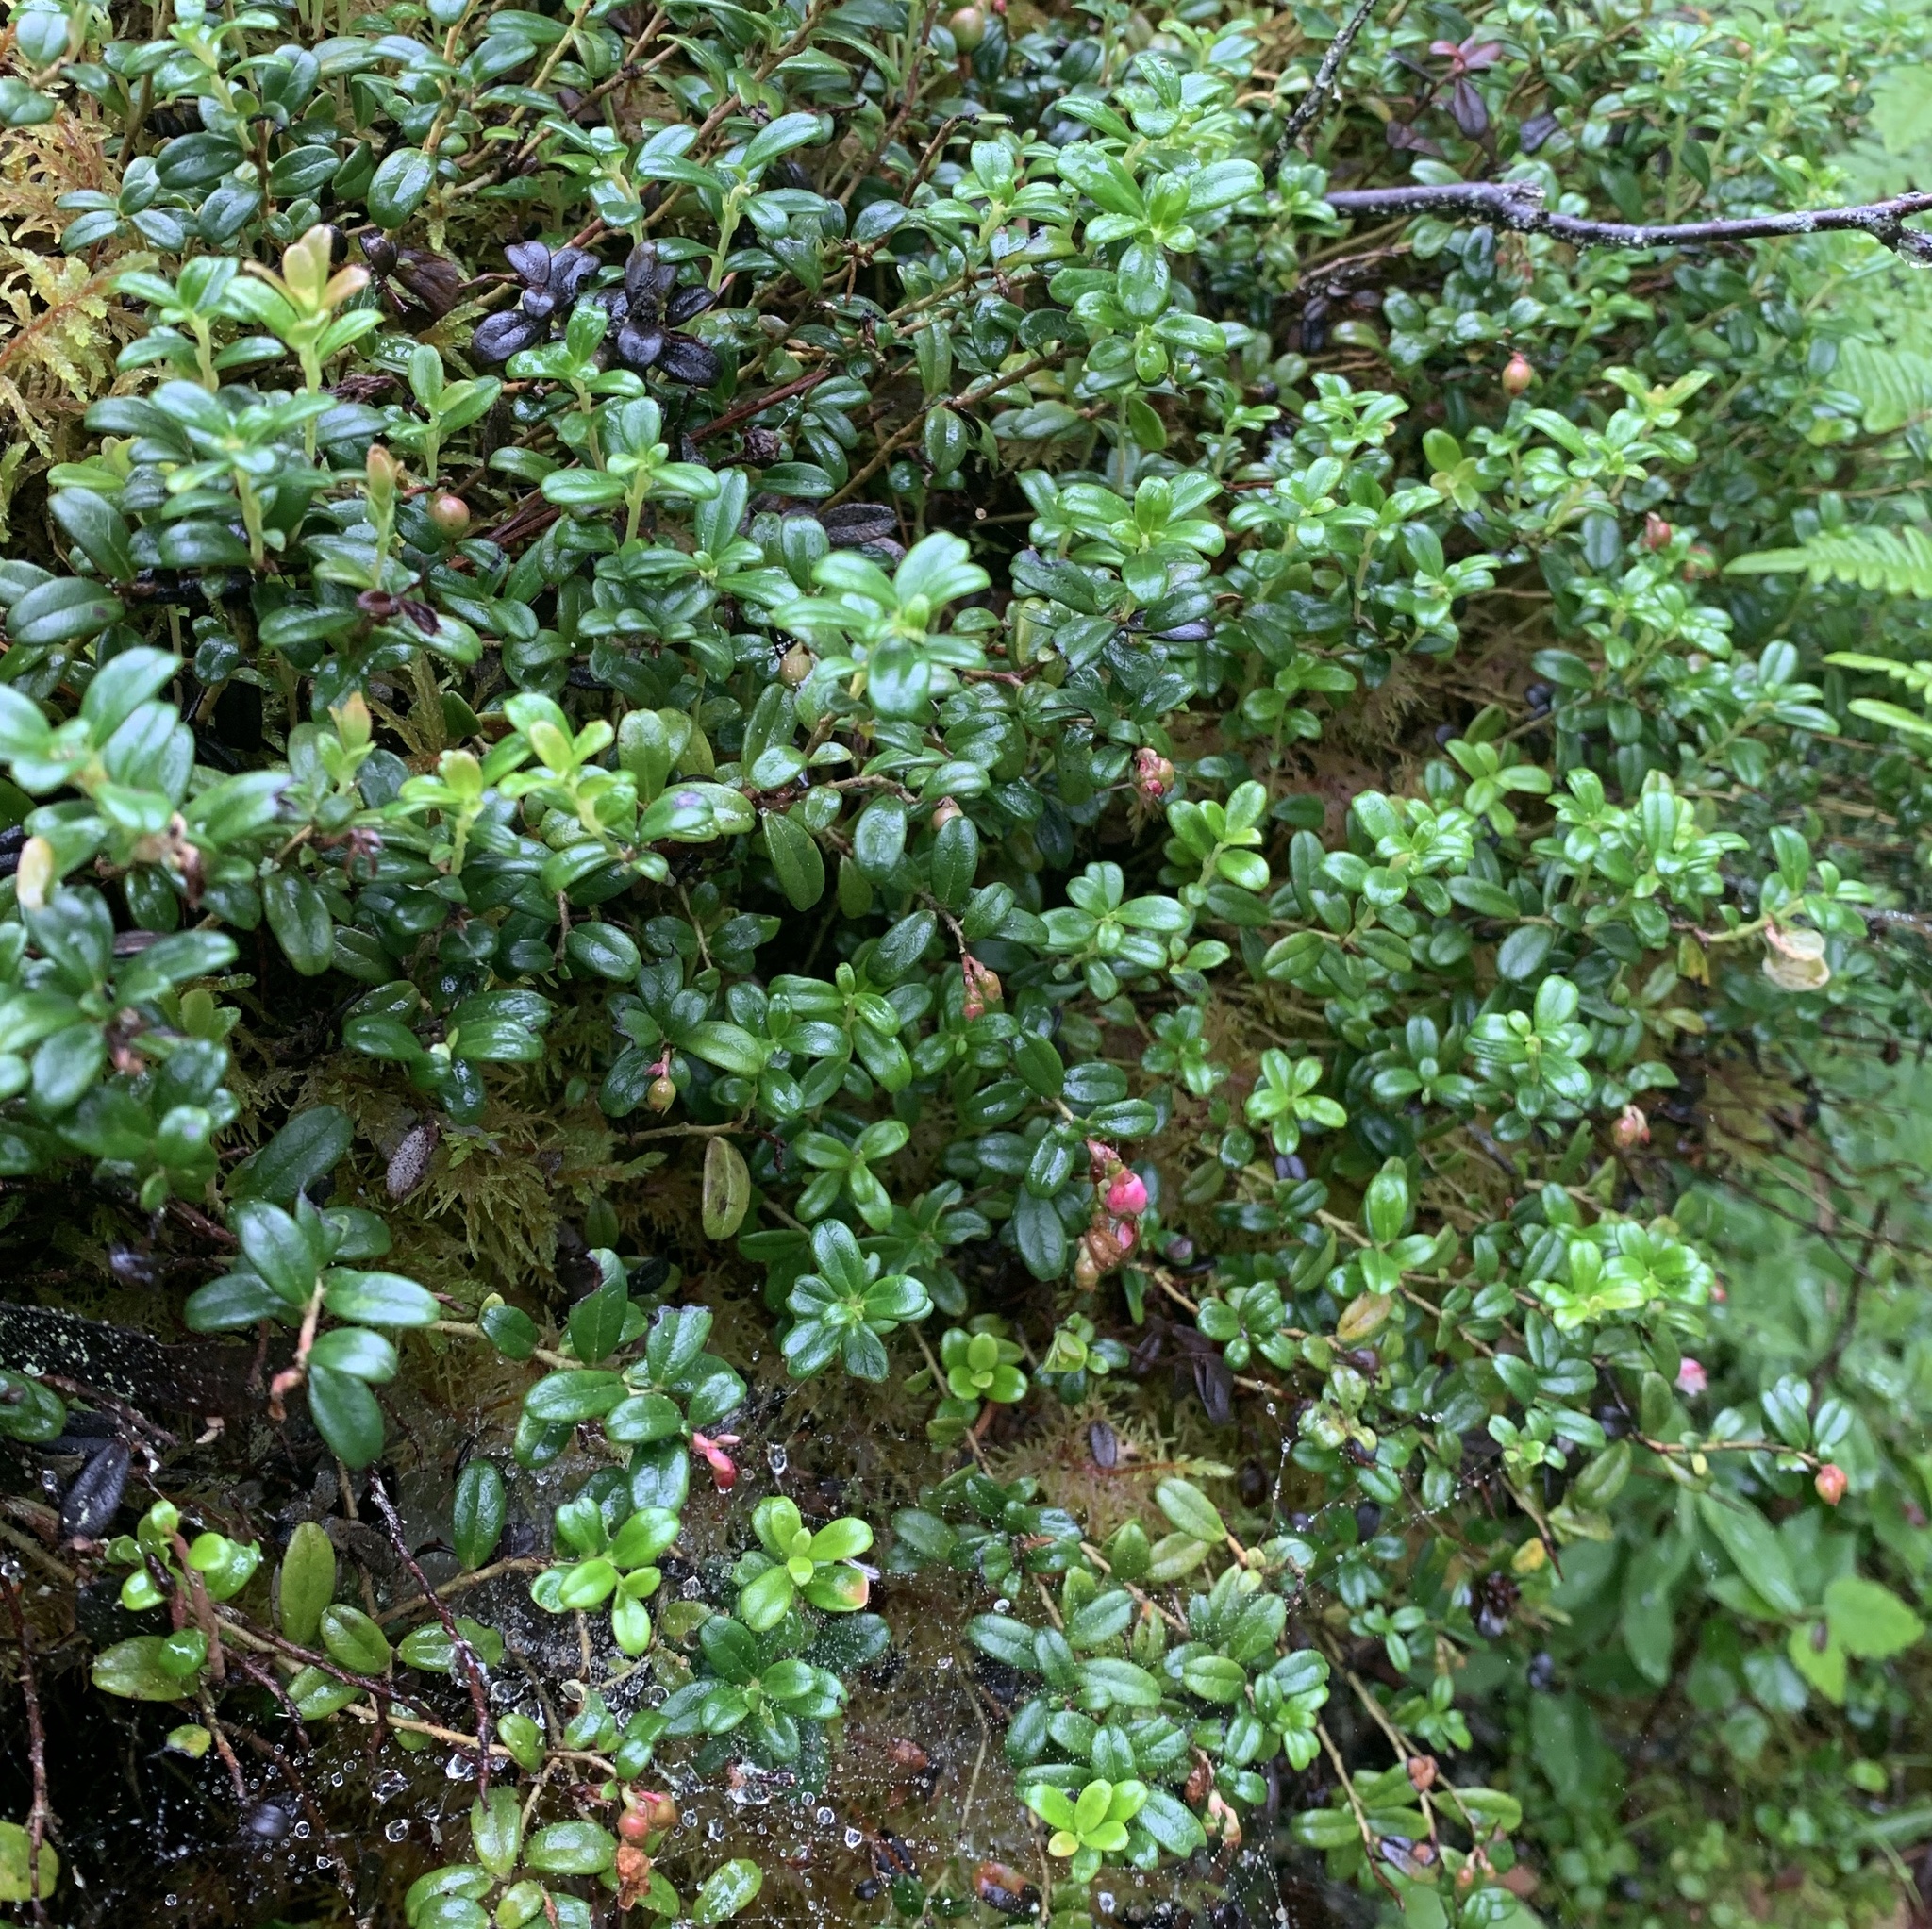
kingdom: Plantae
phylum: Tracheophyta
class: Magnoliopsida
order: Ericales
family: Ericaceae
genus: Vaccinium
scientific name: Vaccinium vitis-idaea
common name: Cowberry
